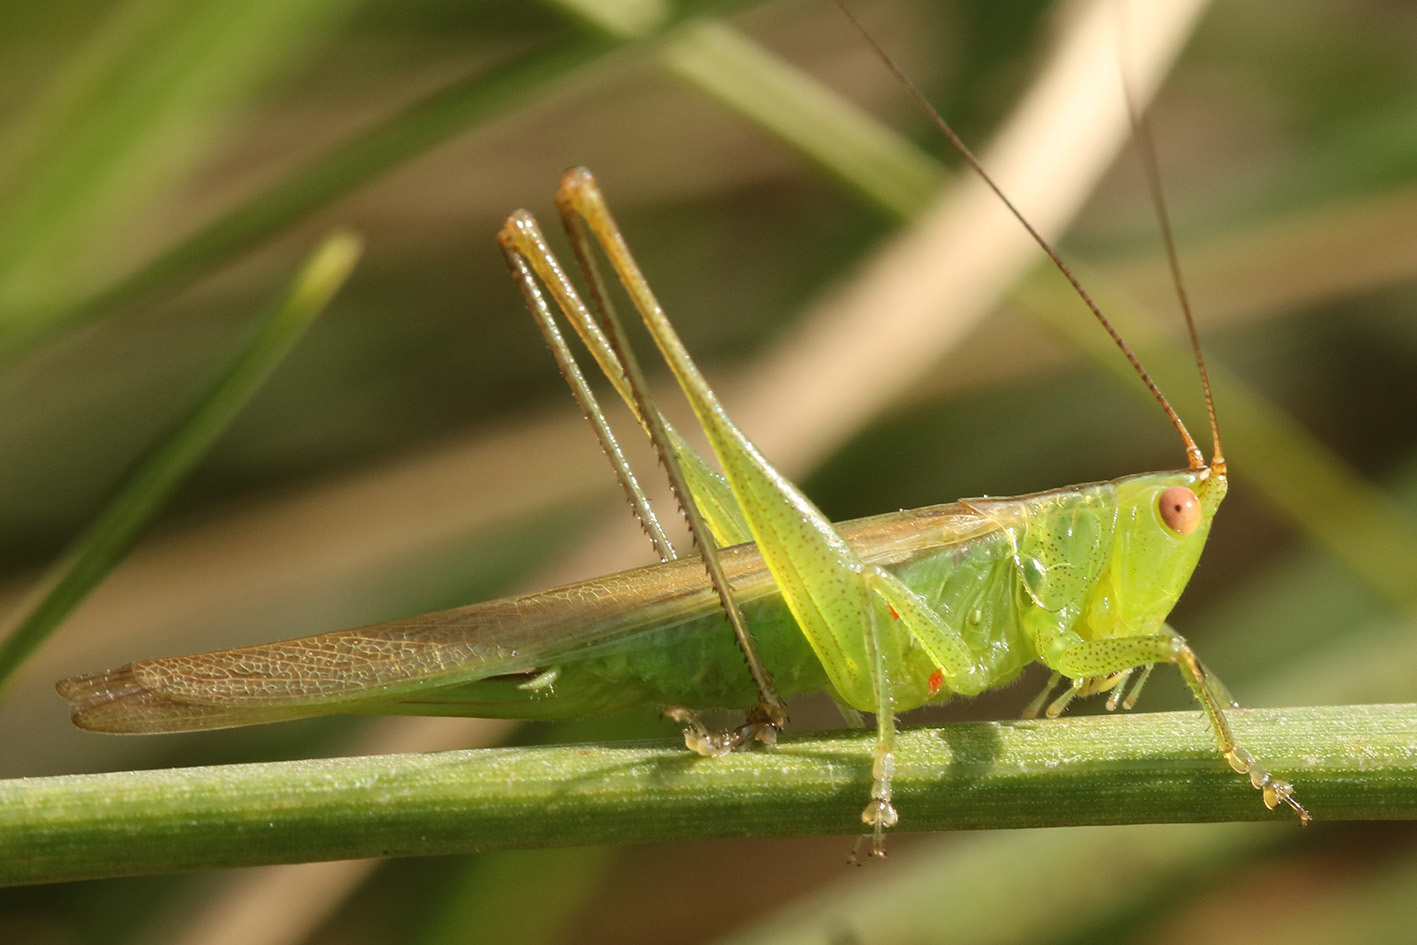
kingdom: Animalia
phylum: Arthropoda
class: Insecta
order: Orthoptera
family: Tettigoniidae
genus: Conocephalus
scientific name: Conocephalus longipes
